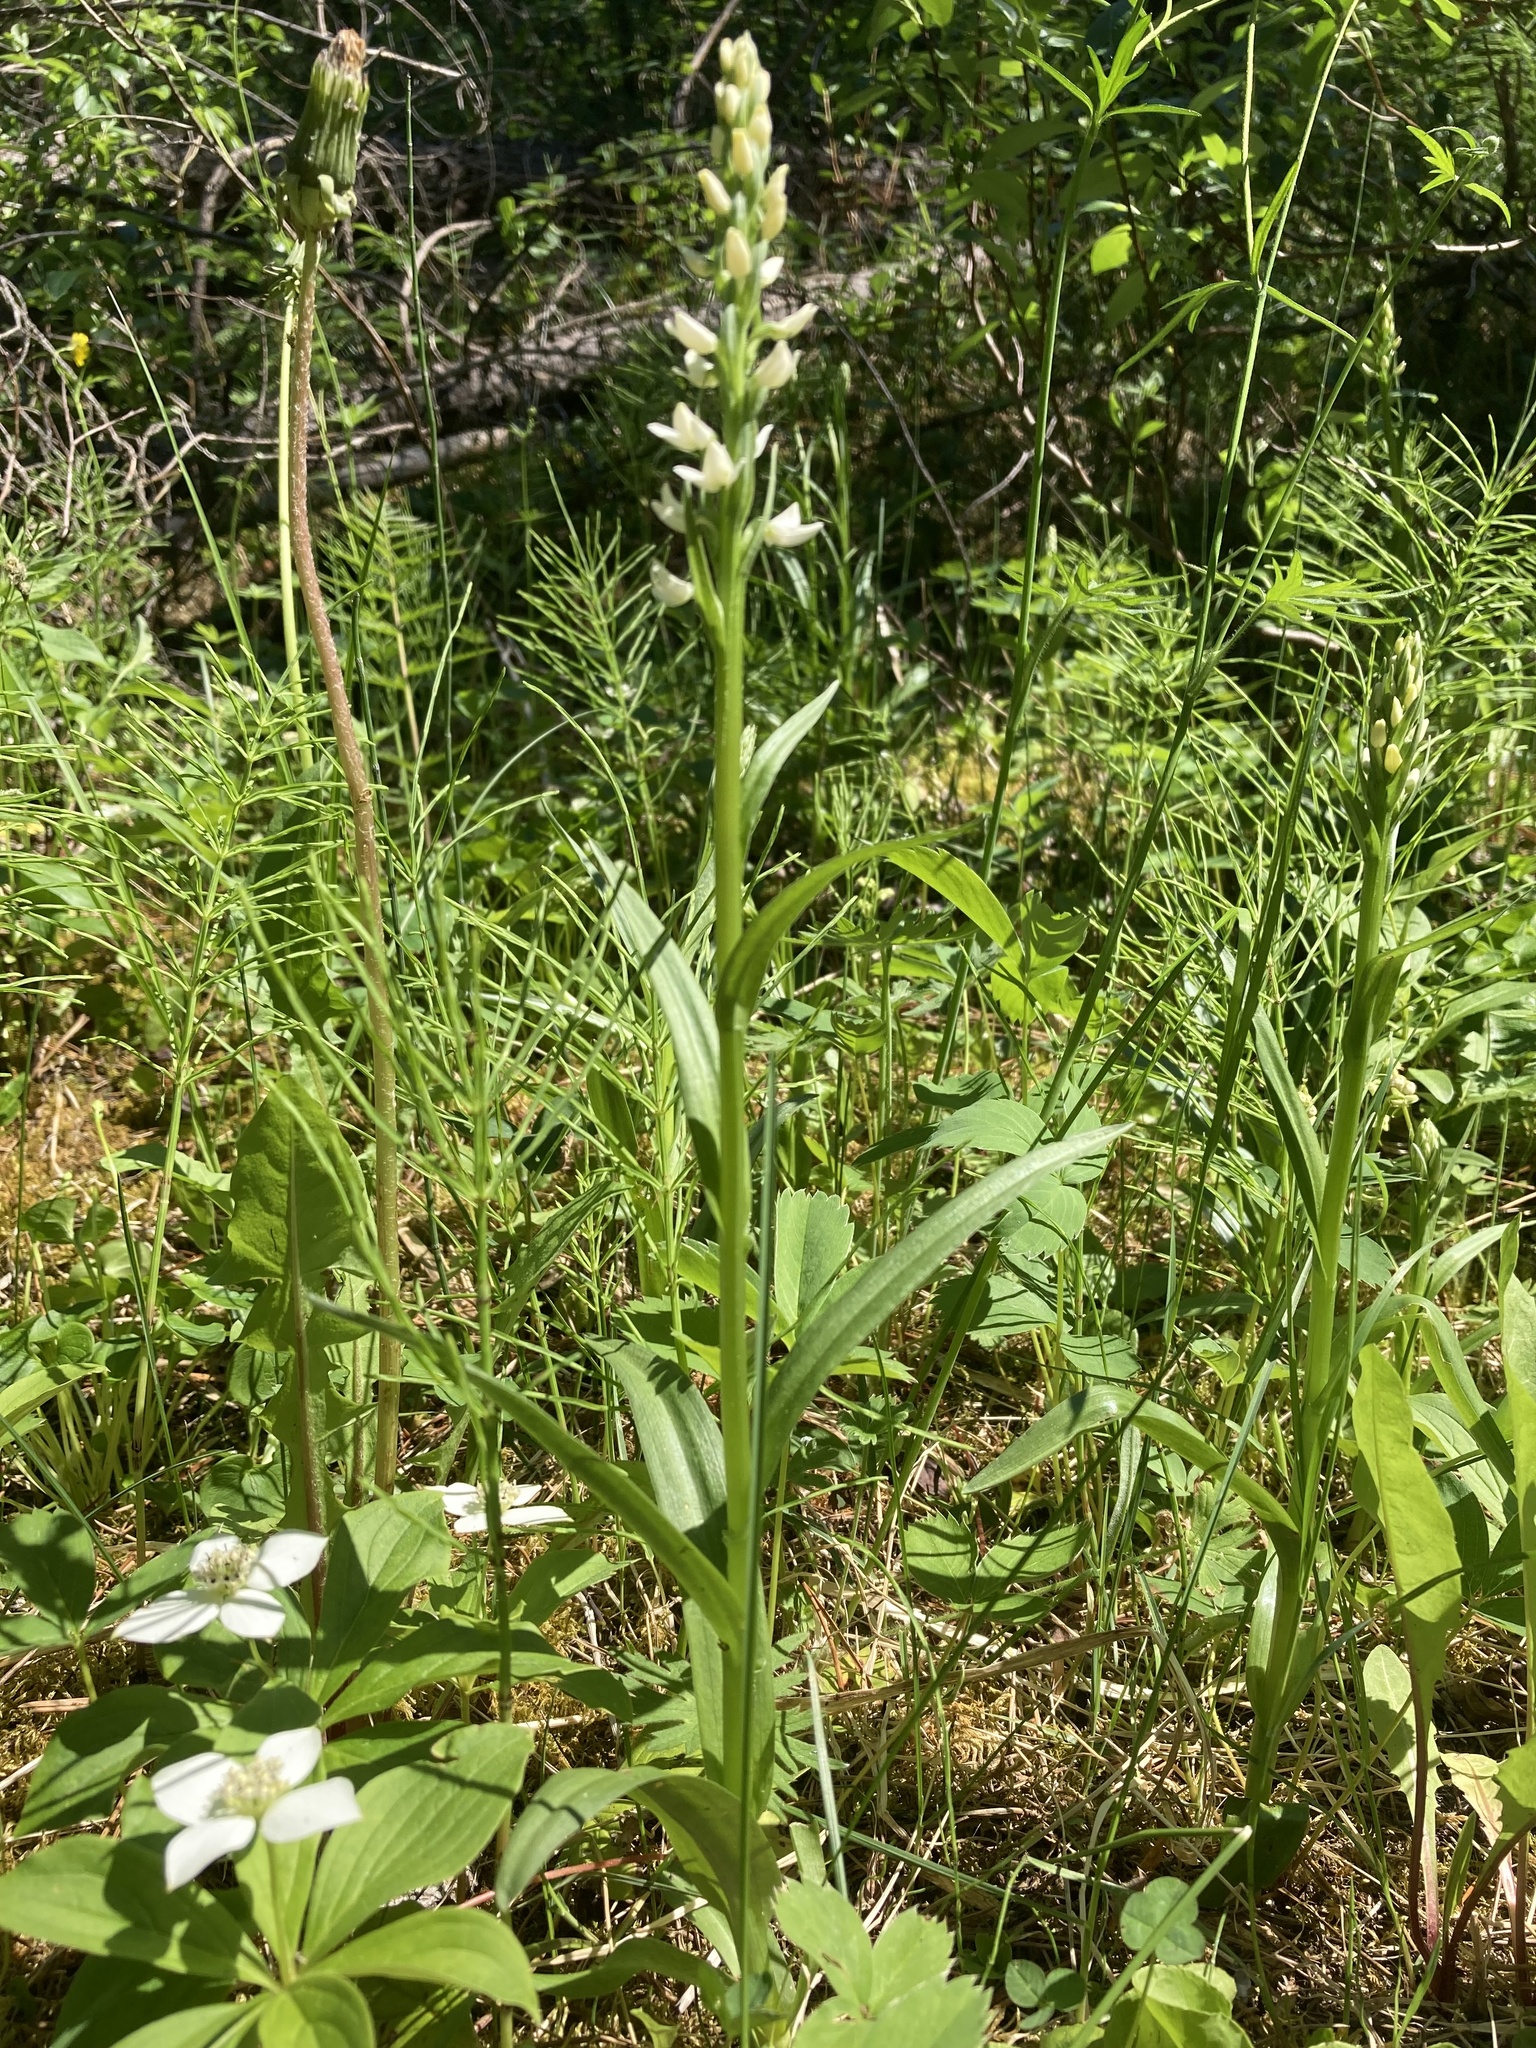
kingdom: Plantae
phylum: Tracheophyta
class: Liliopsida
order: Asparagales
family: Orchidaceae
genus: Platanthera
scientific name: Platanthera dilatata
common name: Bog candles
